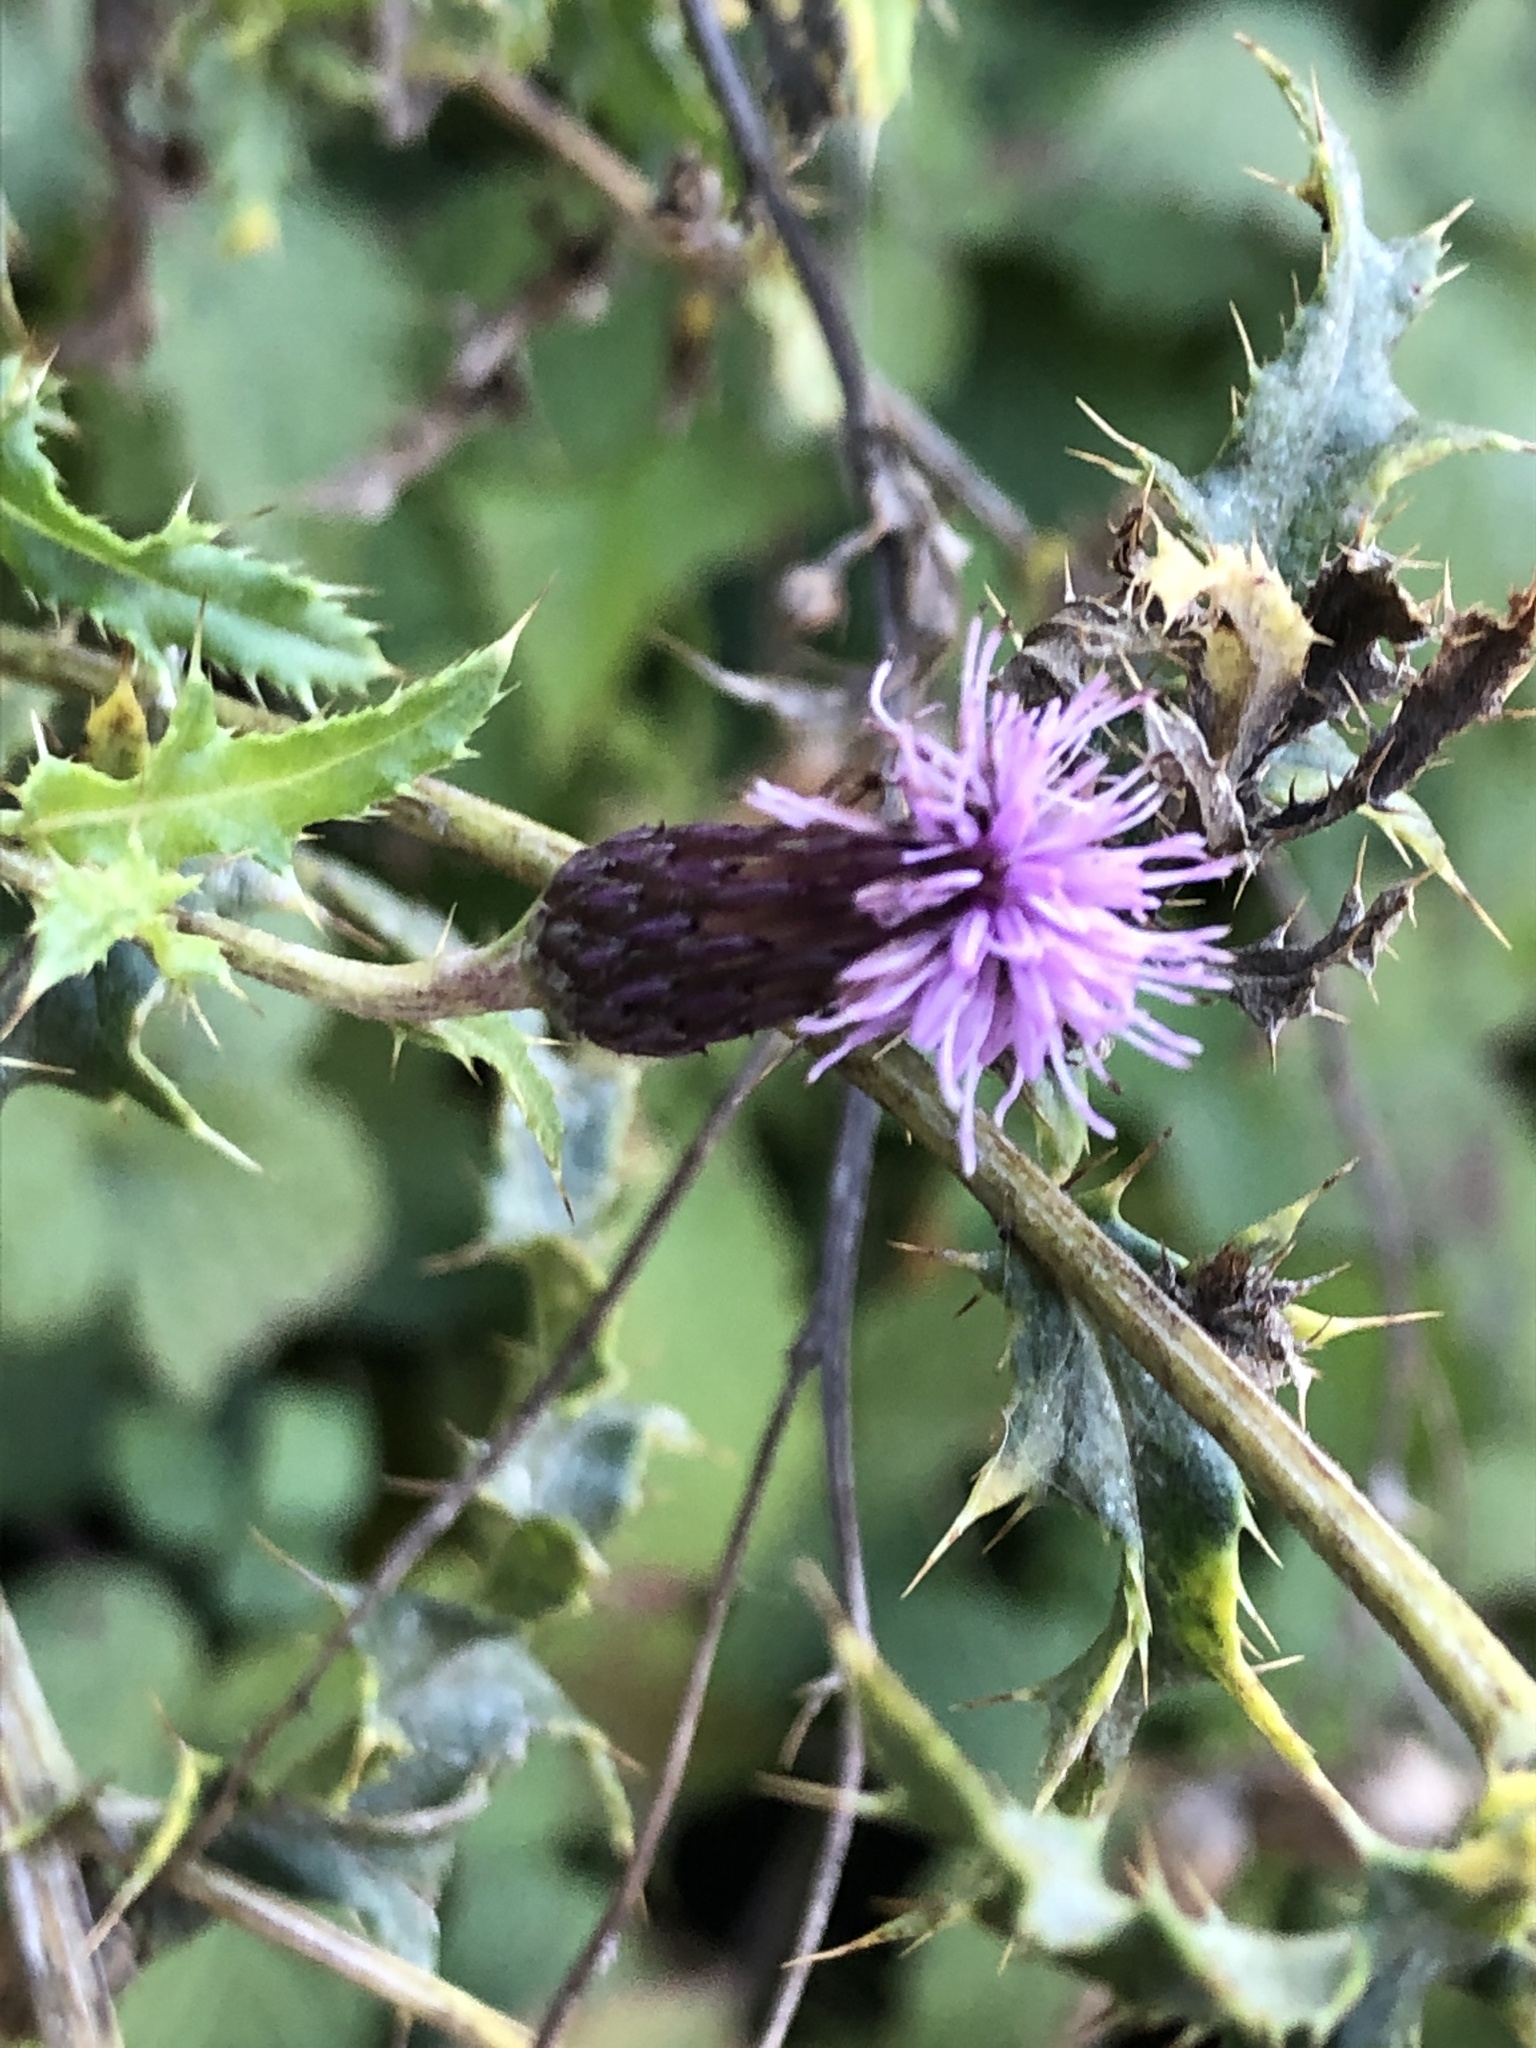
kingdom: Plantae
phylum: Tracheophyta
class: Magnoliopsida
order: Asterales
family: Asteraceae
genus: Cirsium
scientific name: Cirsium arvense
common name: Creeping thistle
